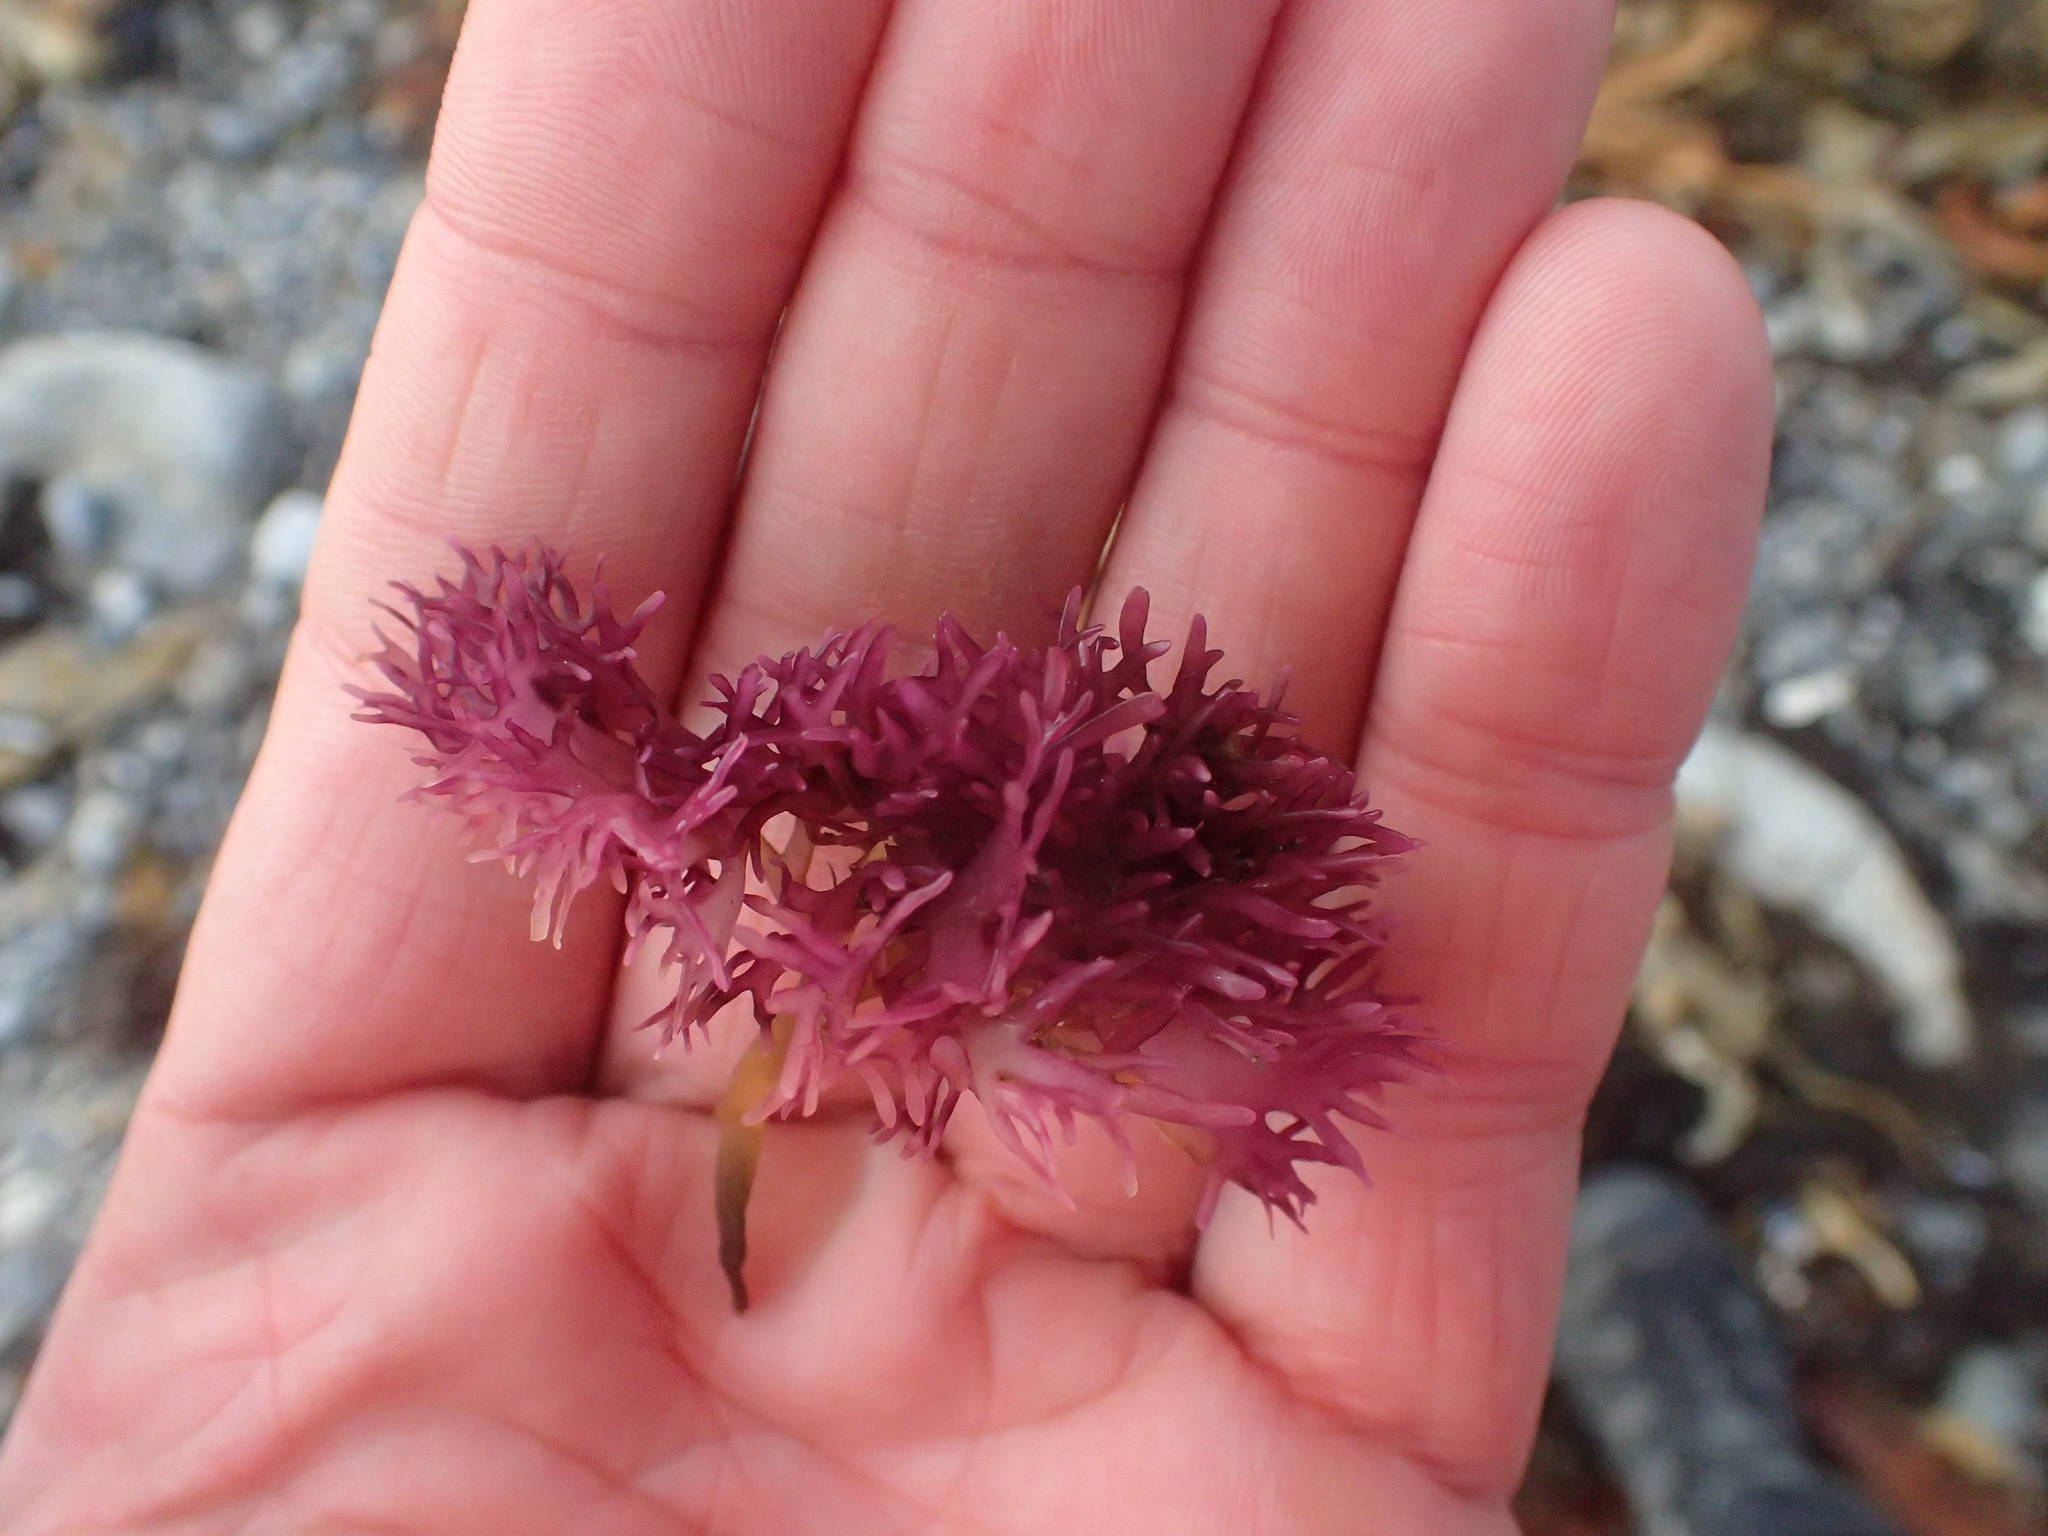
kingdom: Plantae
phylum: Rhodophyta
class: Florideophyceae
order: Gigartinales
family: Gigartinaceae
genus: Chondrus
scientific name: Chondrus crispus
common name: Carrageen
